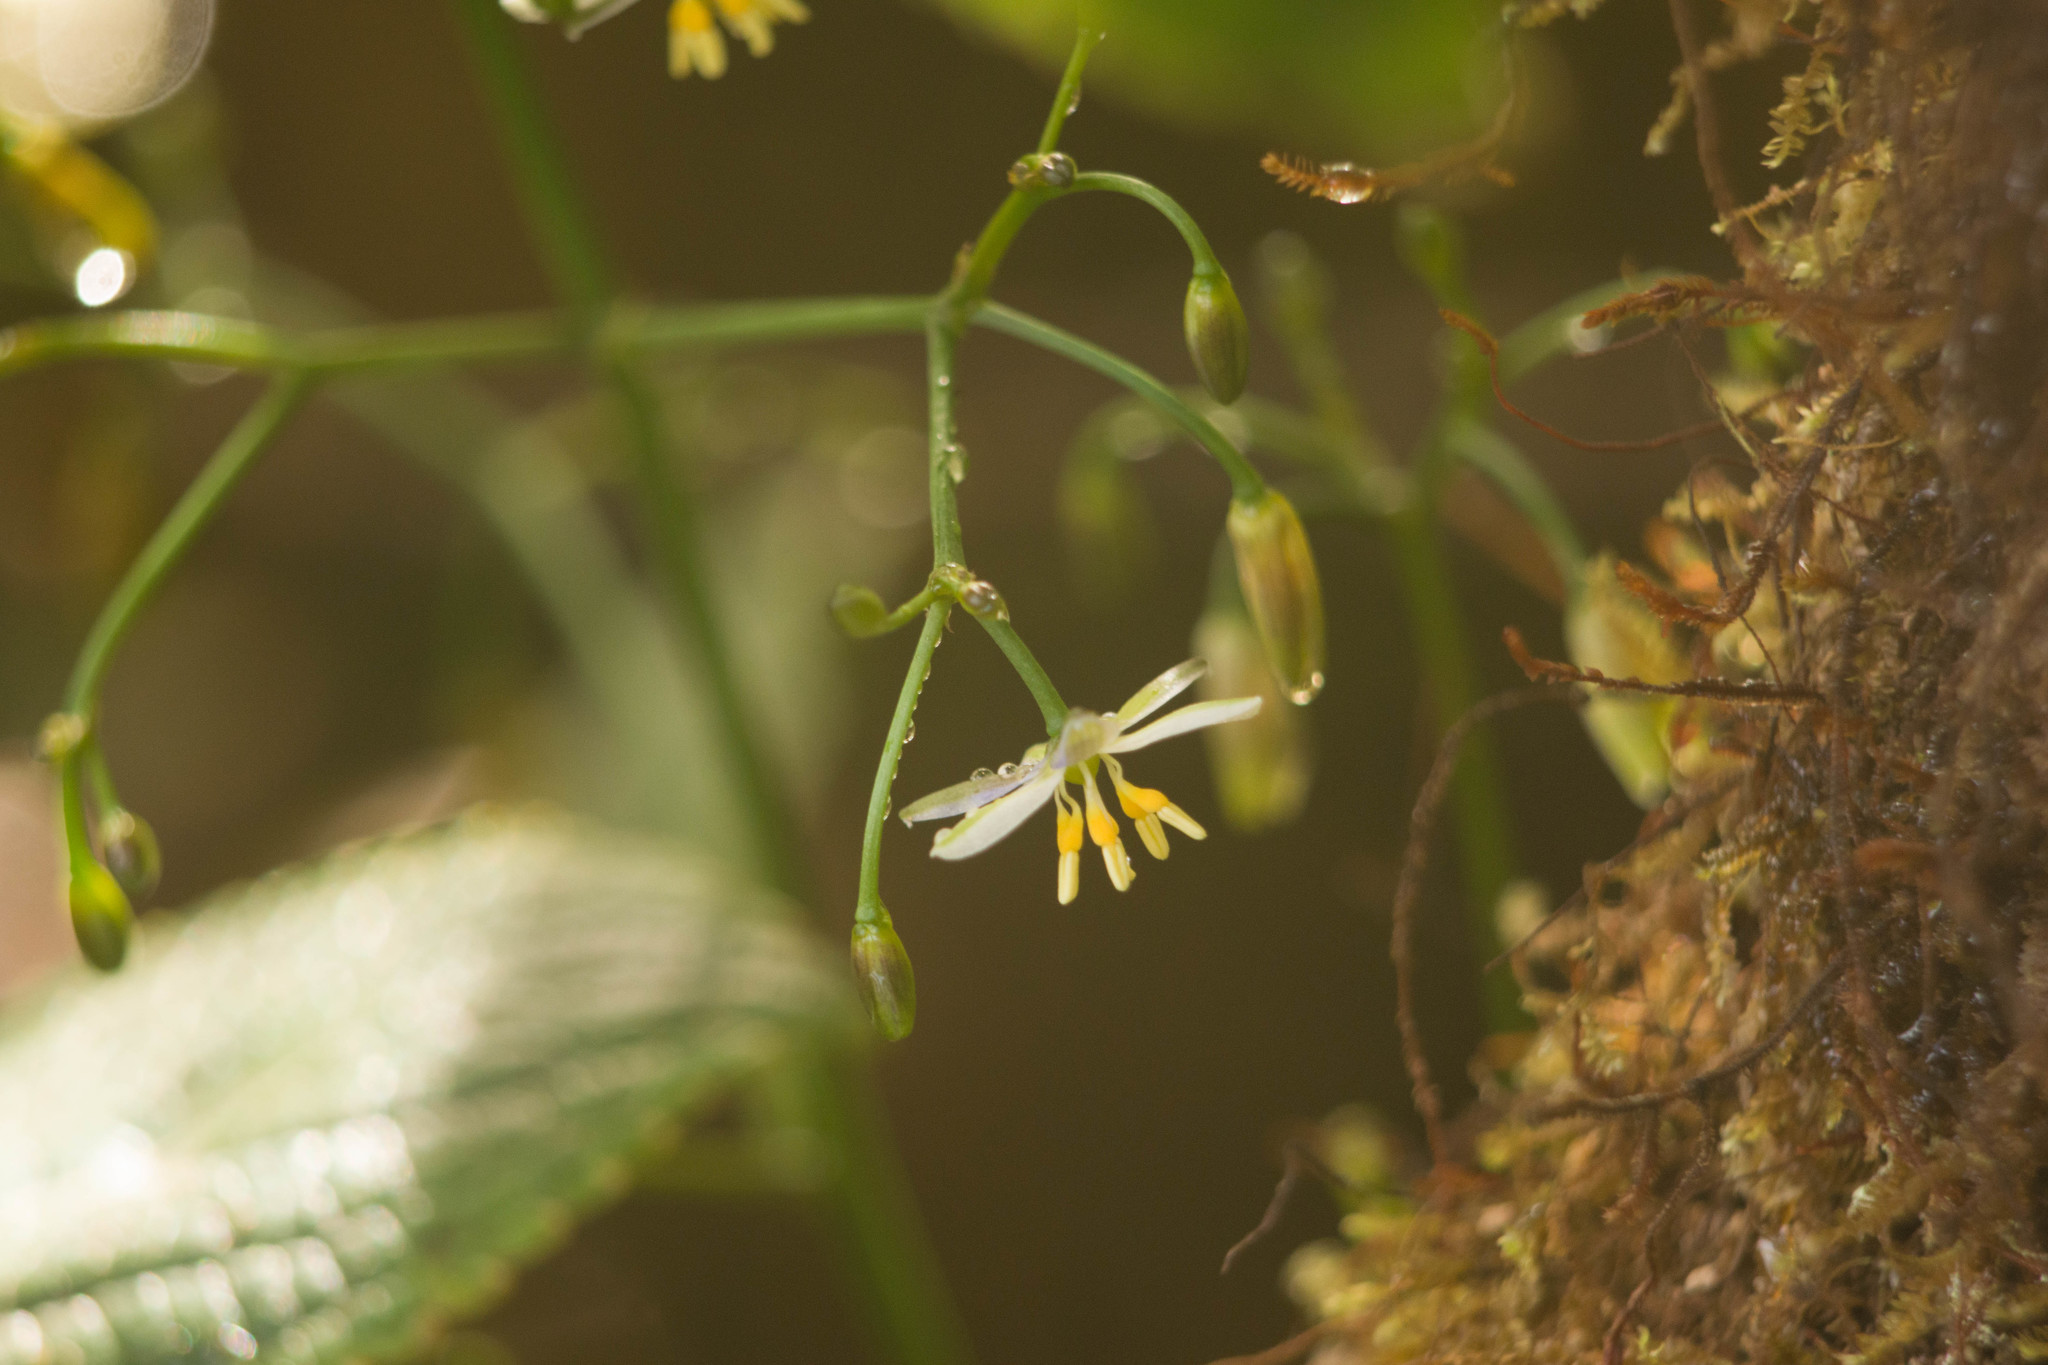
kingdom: Plantae
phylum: Tracheophyta
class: Liliopsida
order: Asparagales
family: Asphodelaceae
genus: Dianella
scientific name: Dianella sandwicensis
